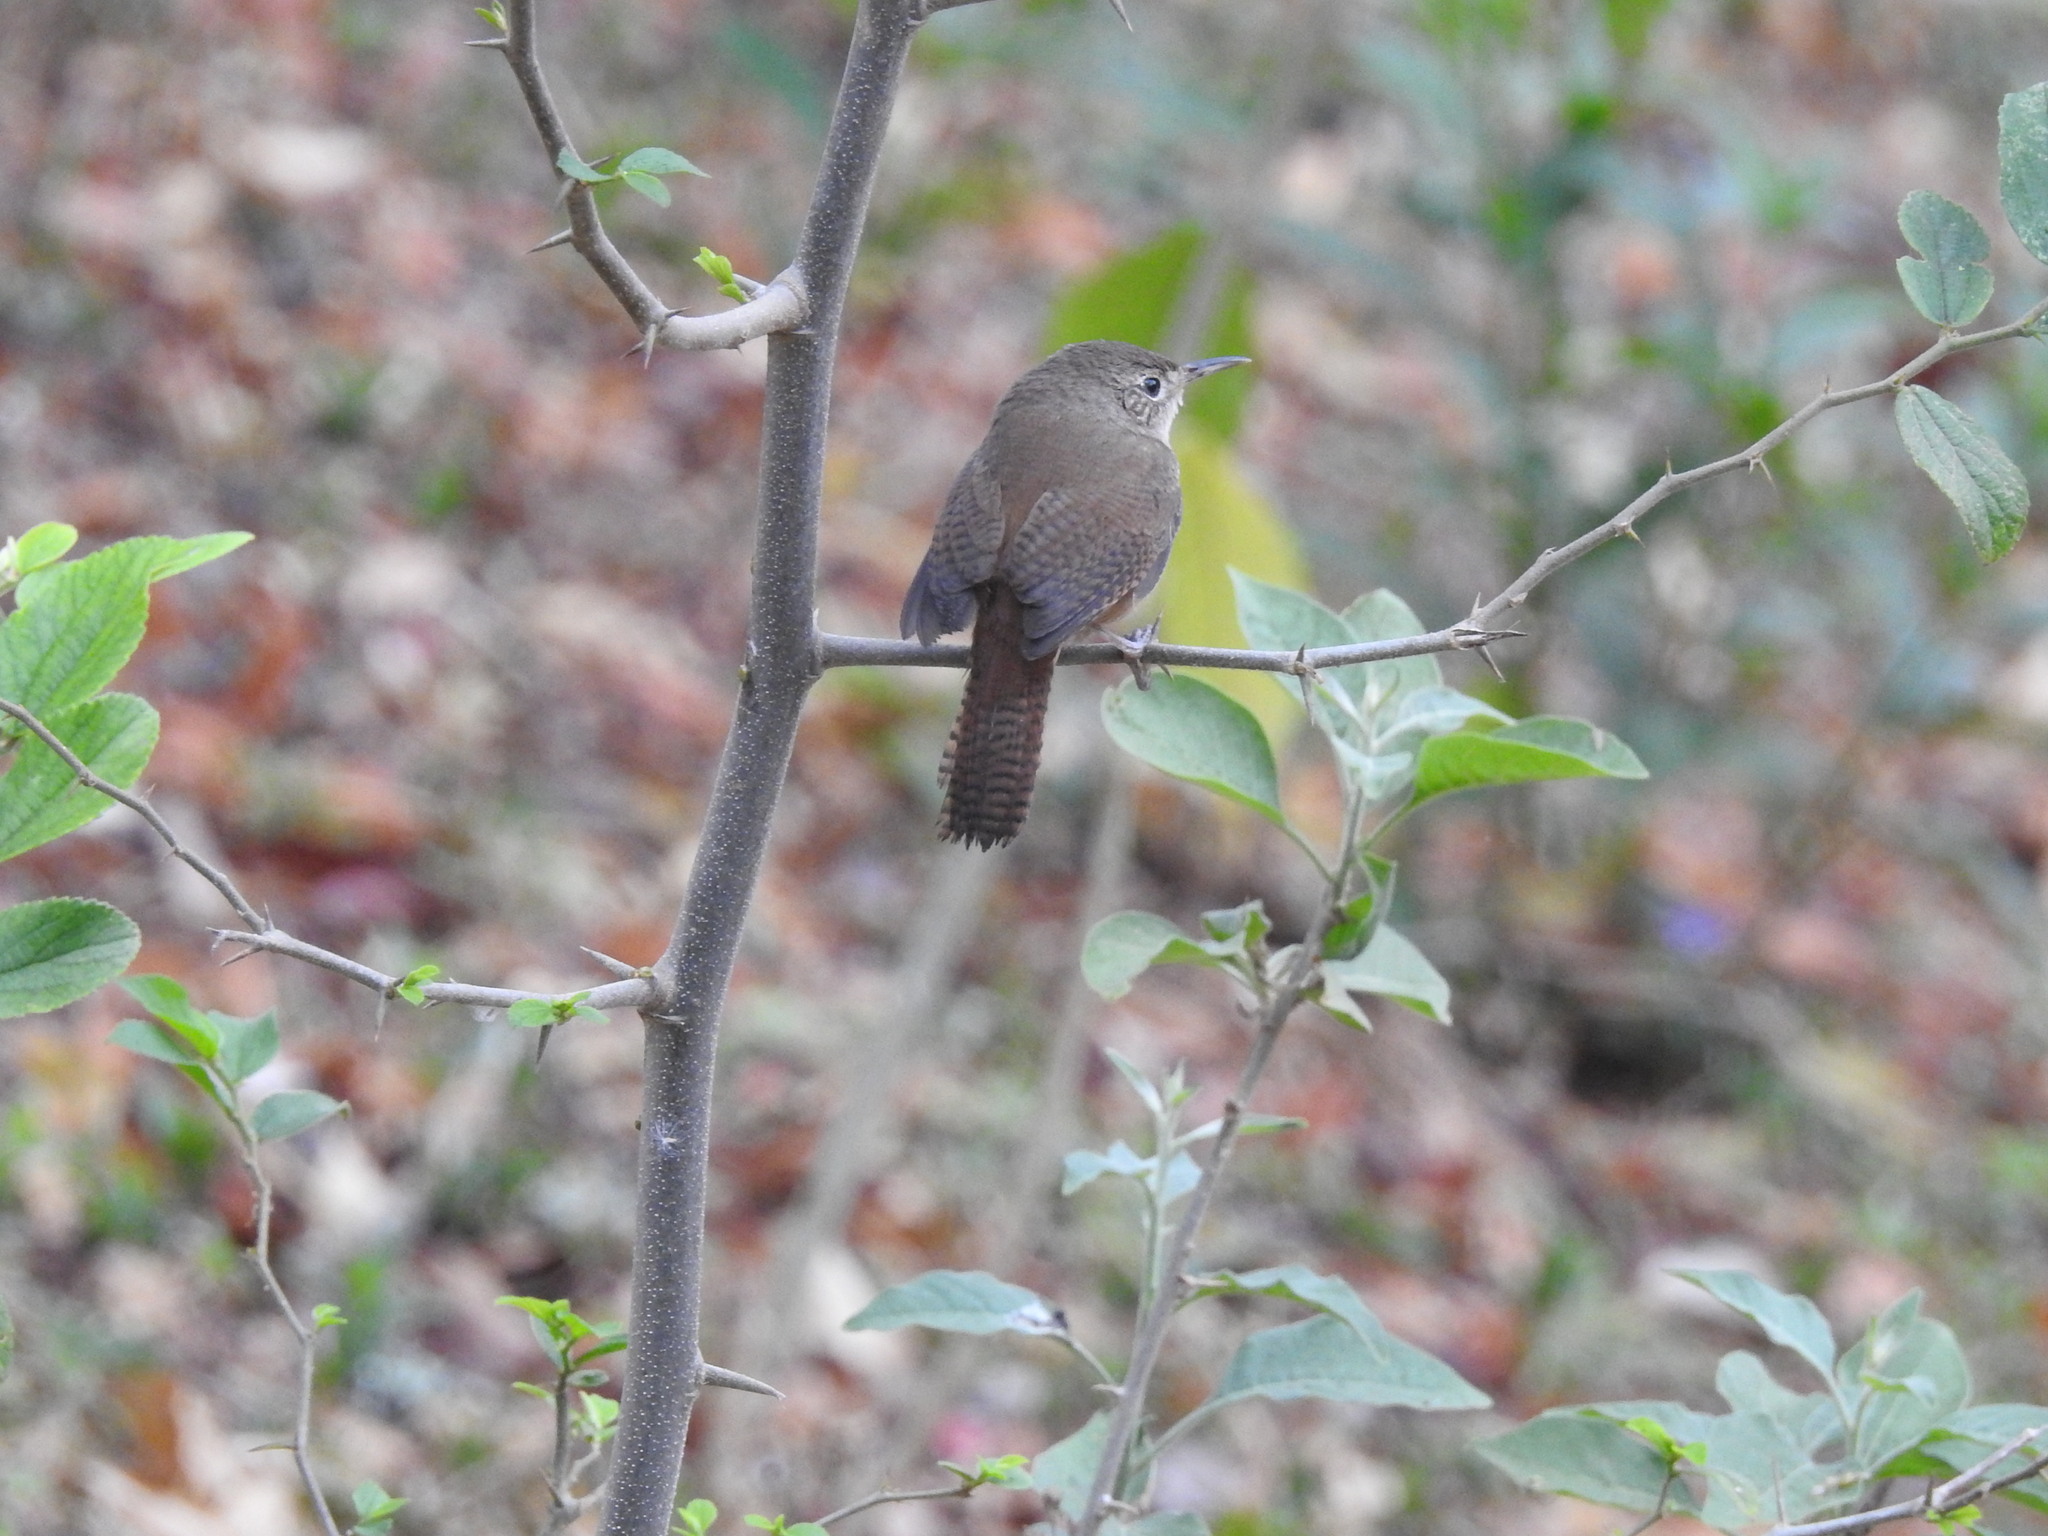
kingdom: Animalia
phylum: Chordata
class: Aves
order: Passeriformes
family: Troglodytidae
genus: Troglodytes
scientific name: Troglodytes aedon
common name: House wren
